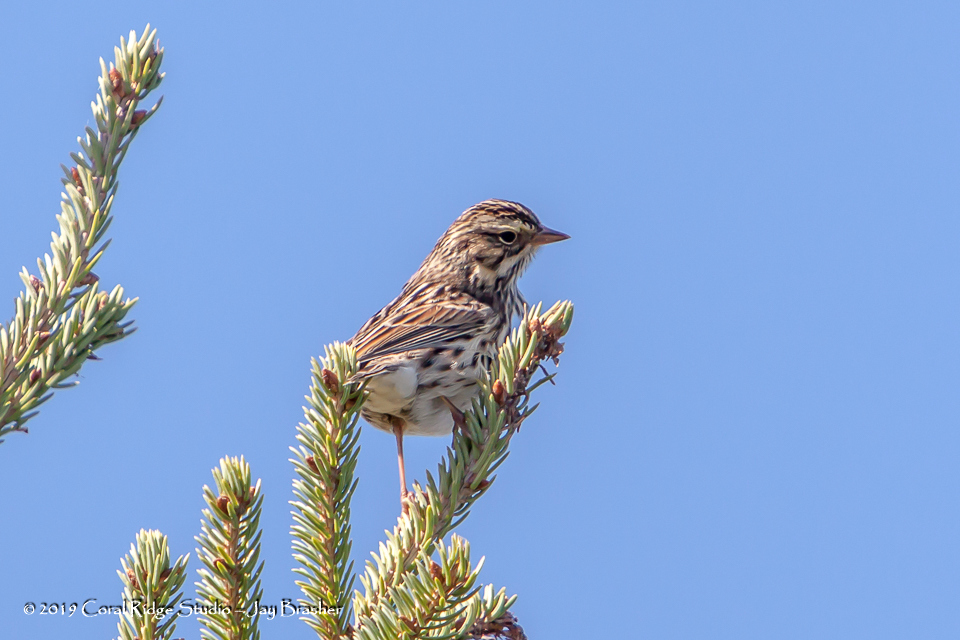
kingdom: Animalia
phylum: Chordata
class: Aves
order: Passeriformes
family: Passerellidae
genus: Melospiza
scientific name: Melospiza melodia
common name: Song sparrow
